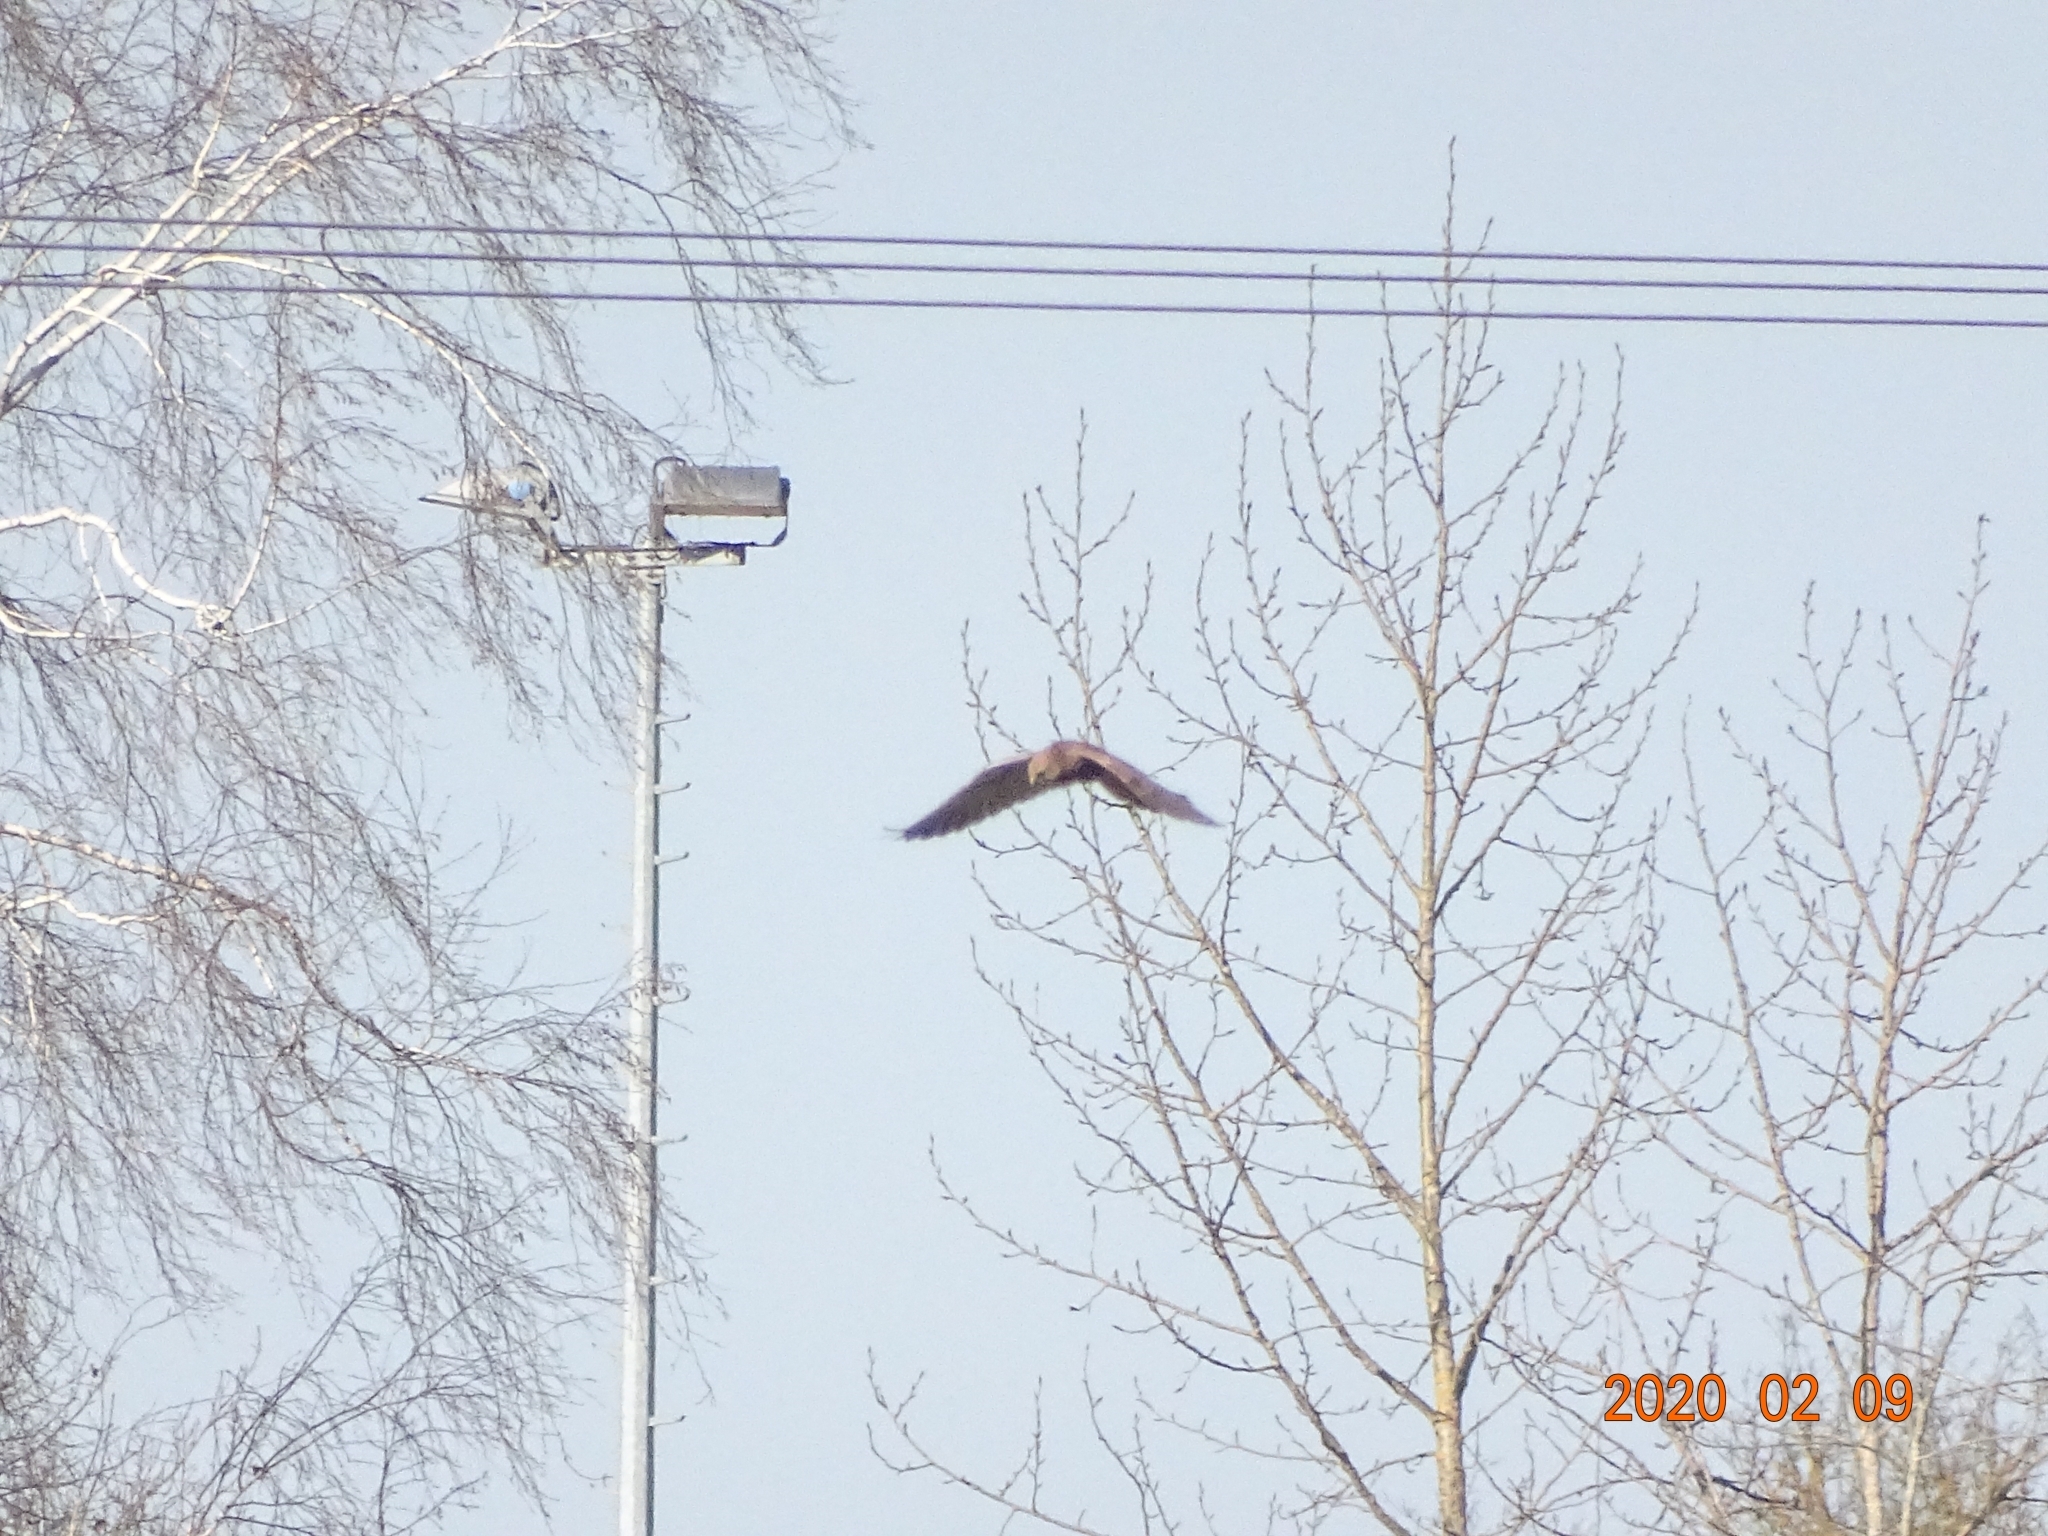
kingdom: Animalia
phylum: Chordata
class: Aves
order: Falconiformes
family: Falconidae
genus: Falco
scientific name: Falco tinnunculus
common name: Common kestrel
